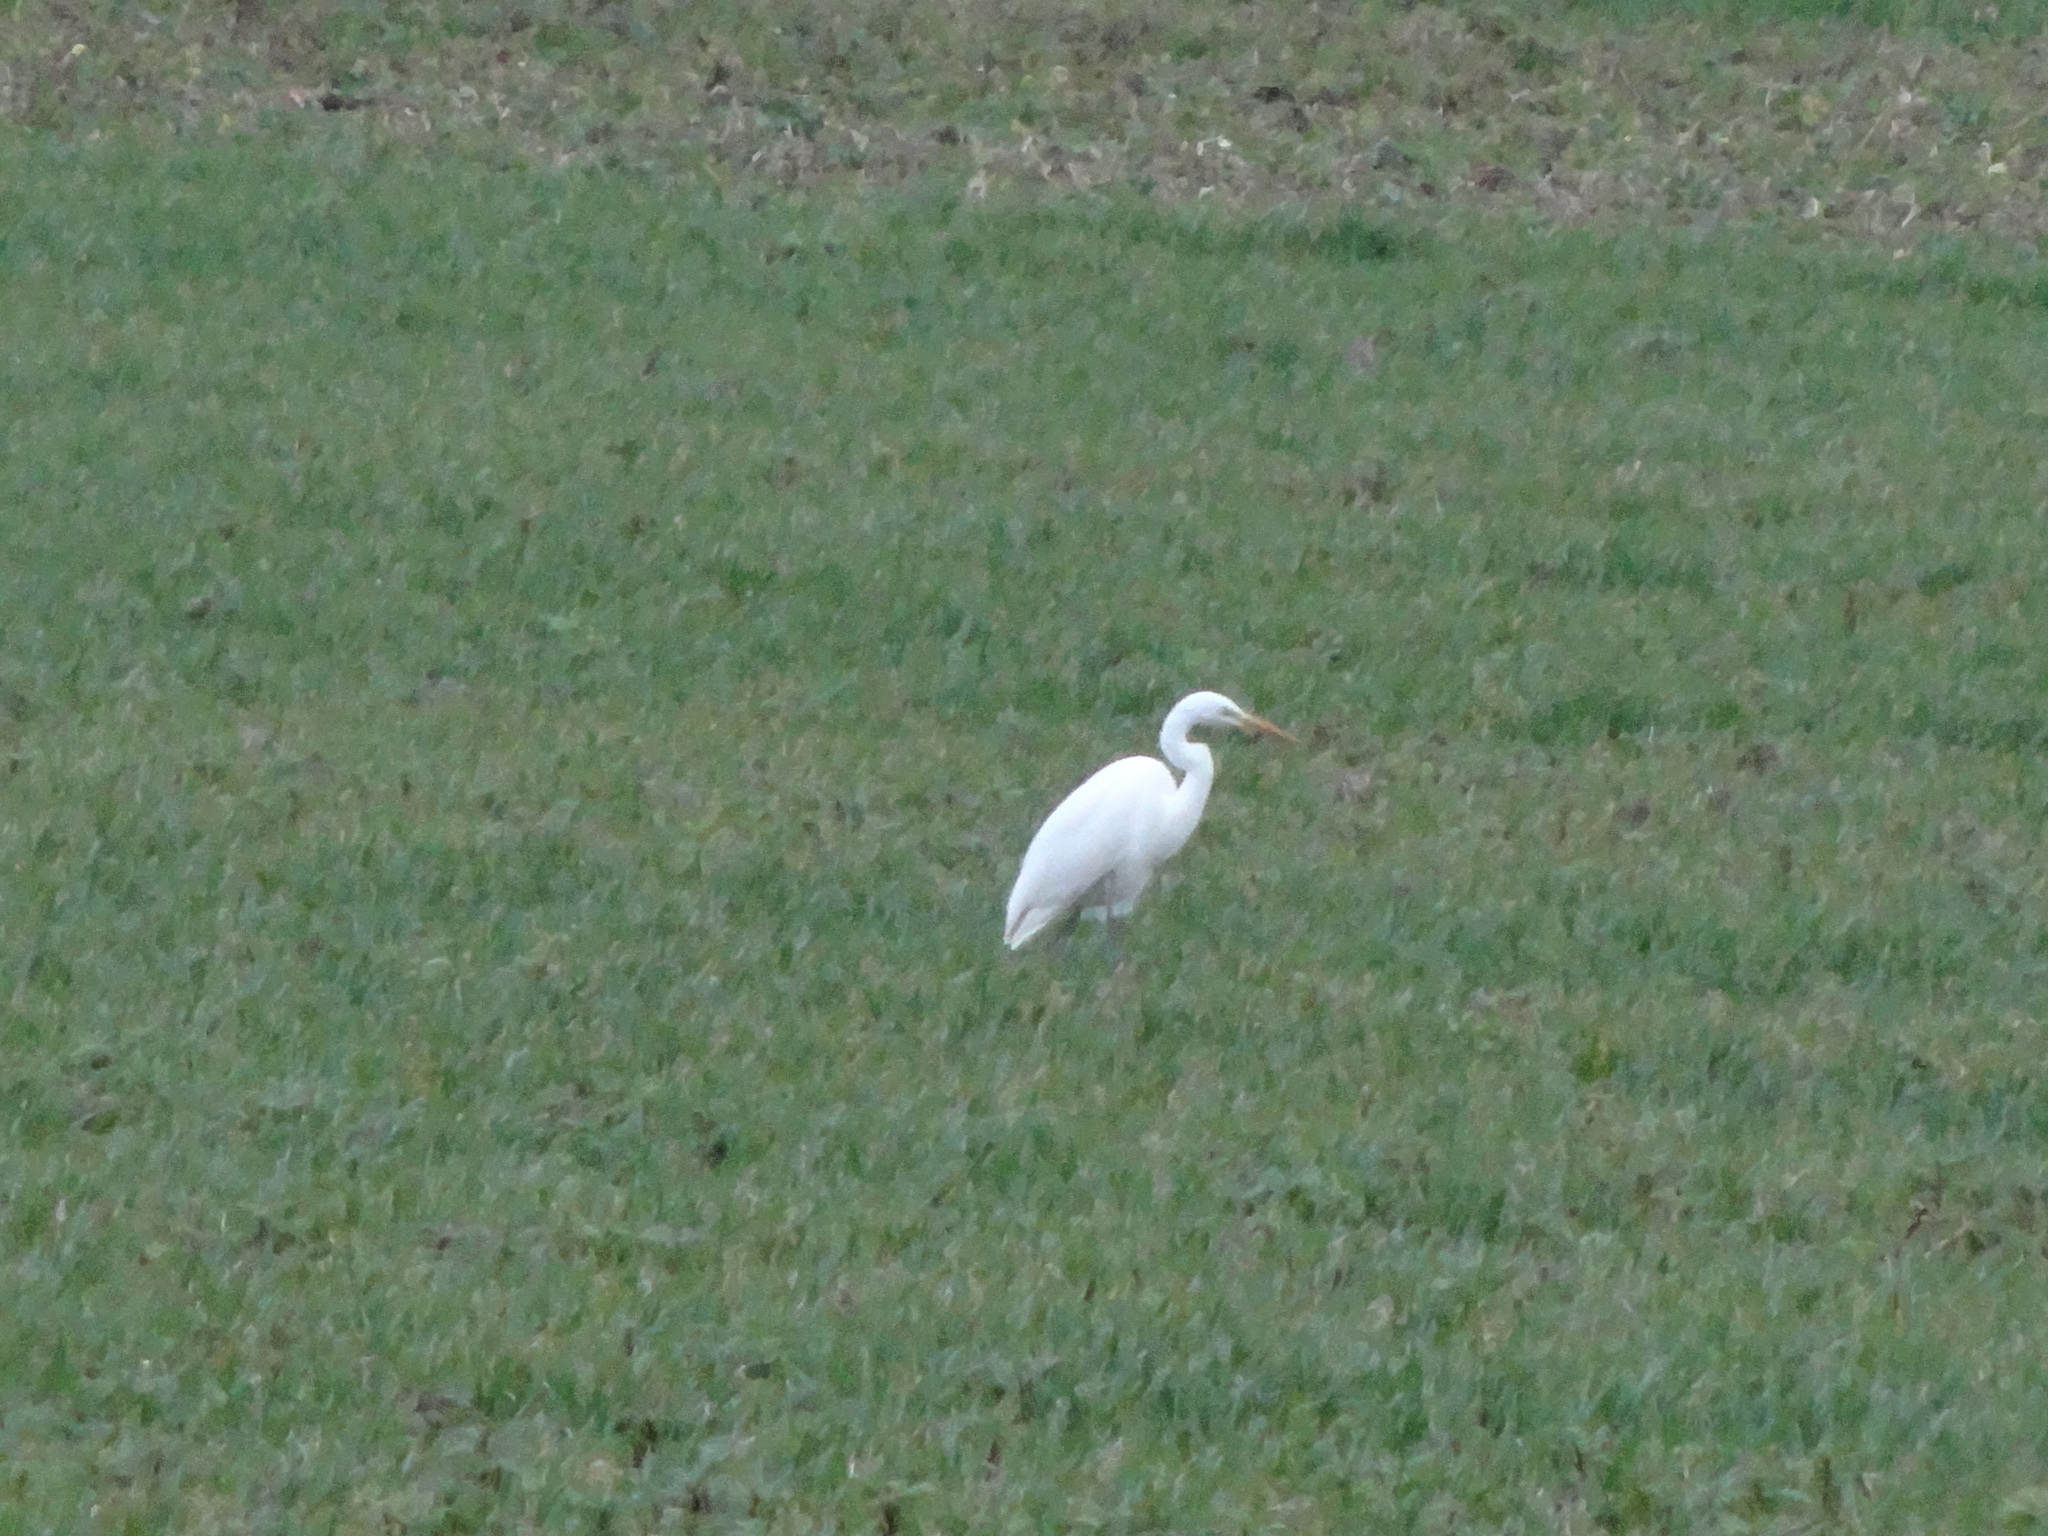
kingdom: Animalia
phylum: Chordata
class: Aves
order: Pelecaniformes
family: Ardeidae
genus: Ardea
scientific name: Ardea alba
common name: Great egret
